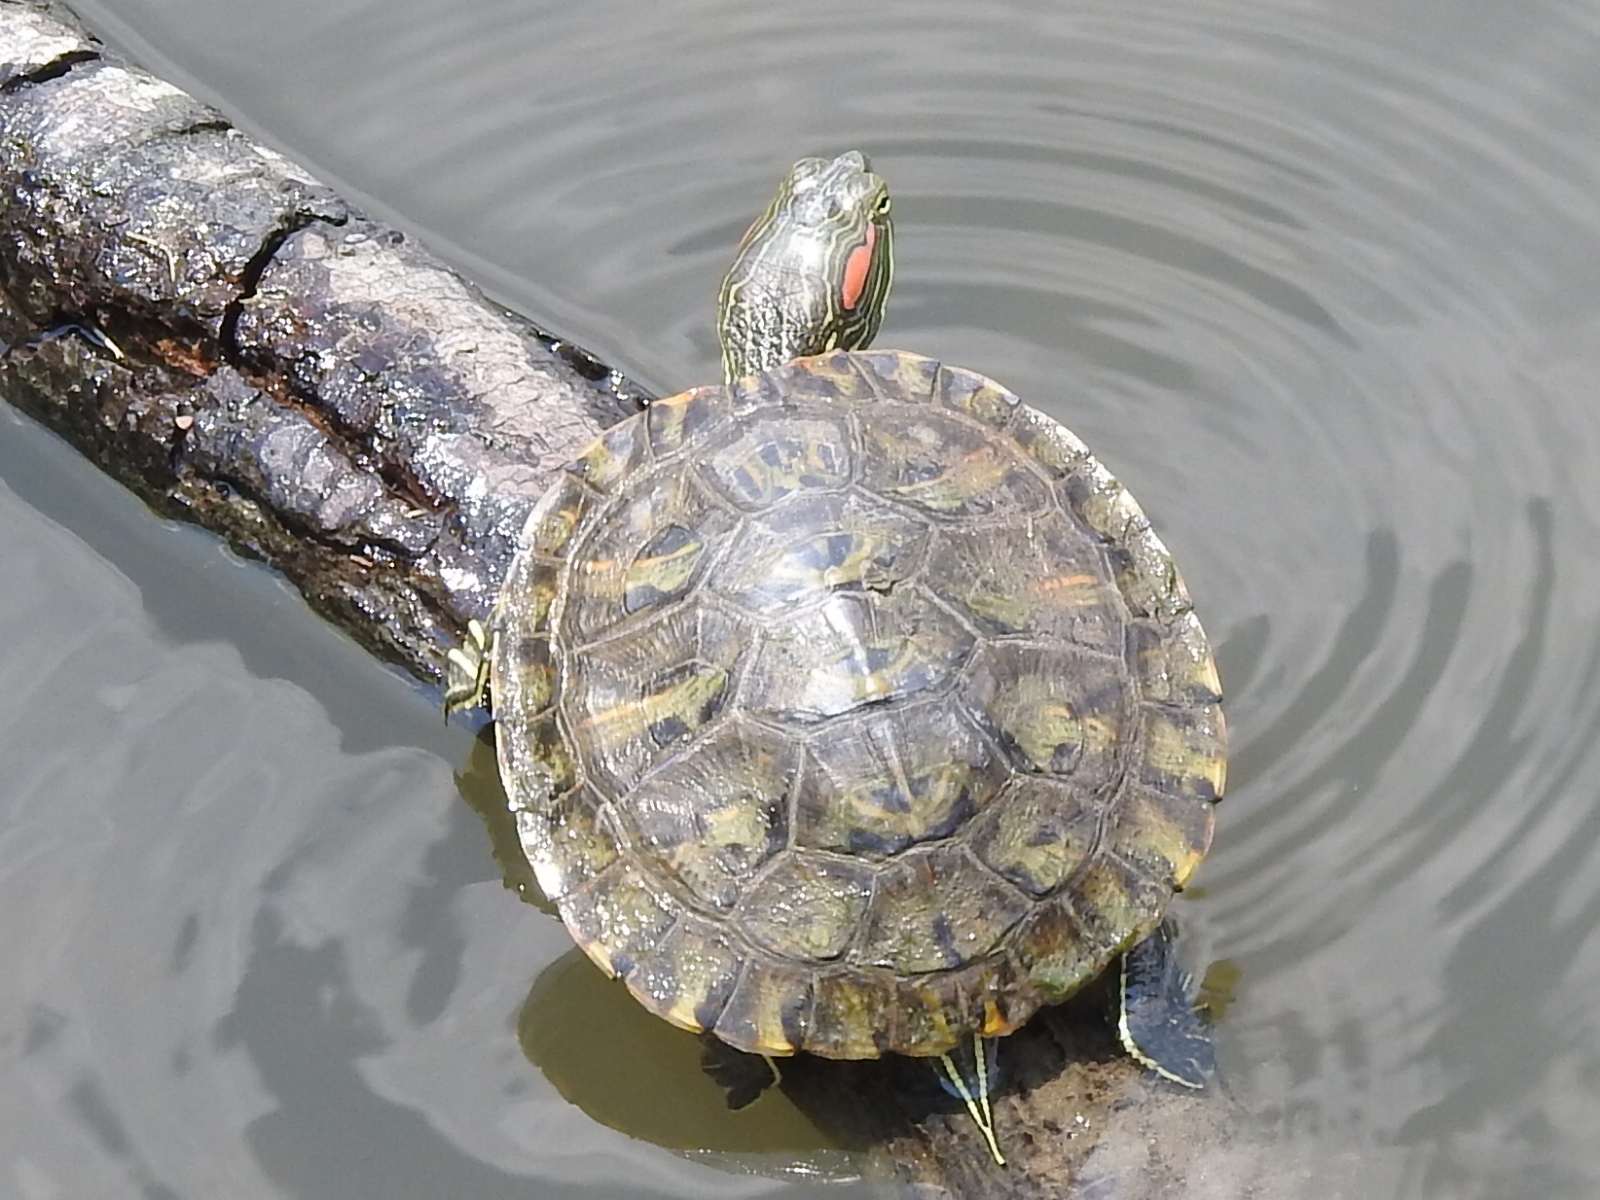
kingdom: Animalia
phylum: Chordata
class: Testudines
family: Emydidae
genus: Trachemys
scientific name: Trachemys scripta
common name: Slider
